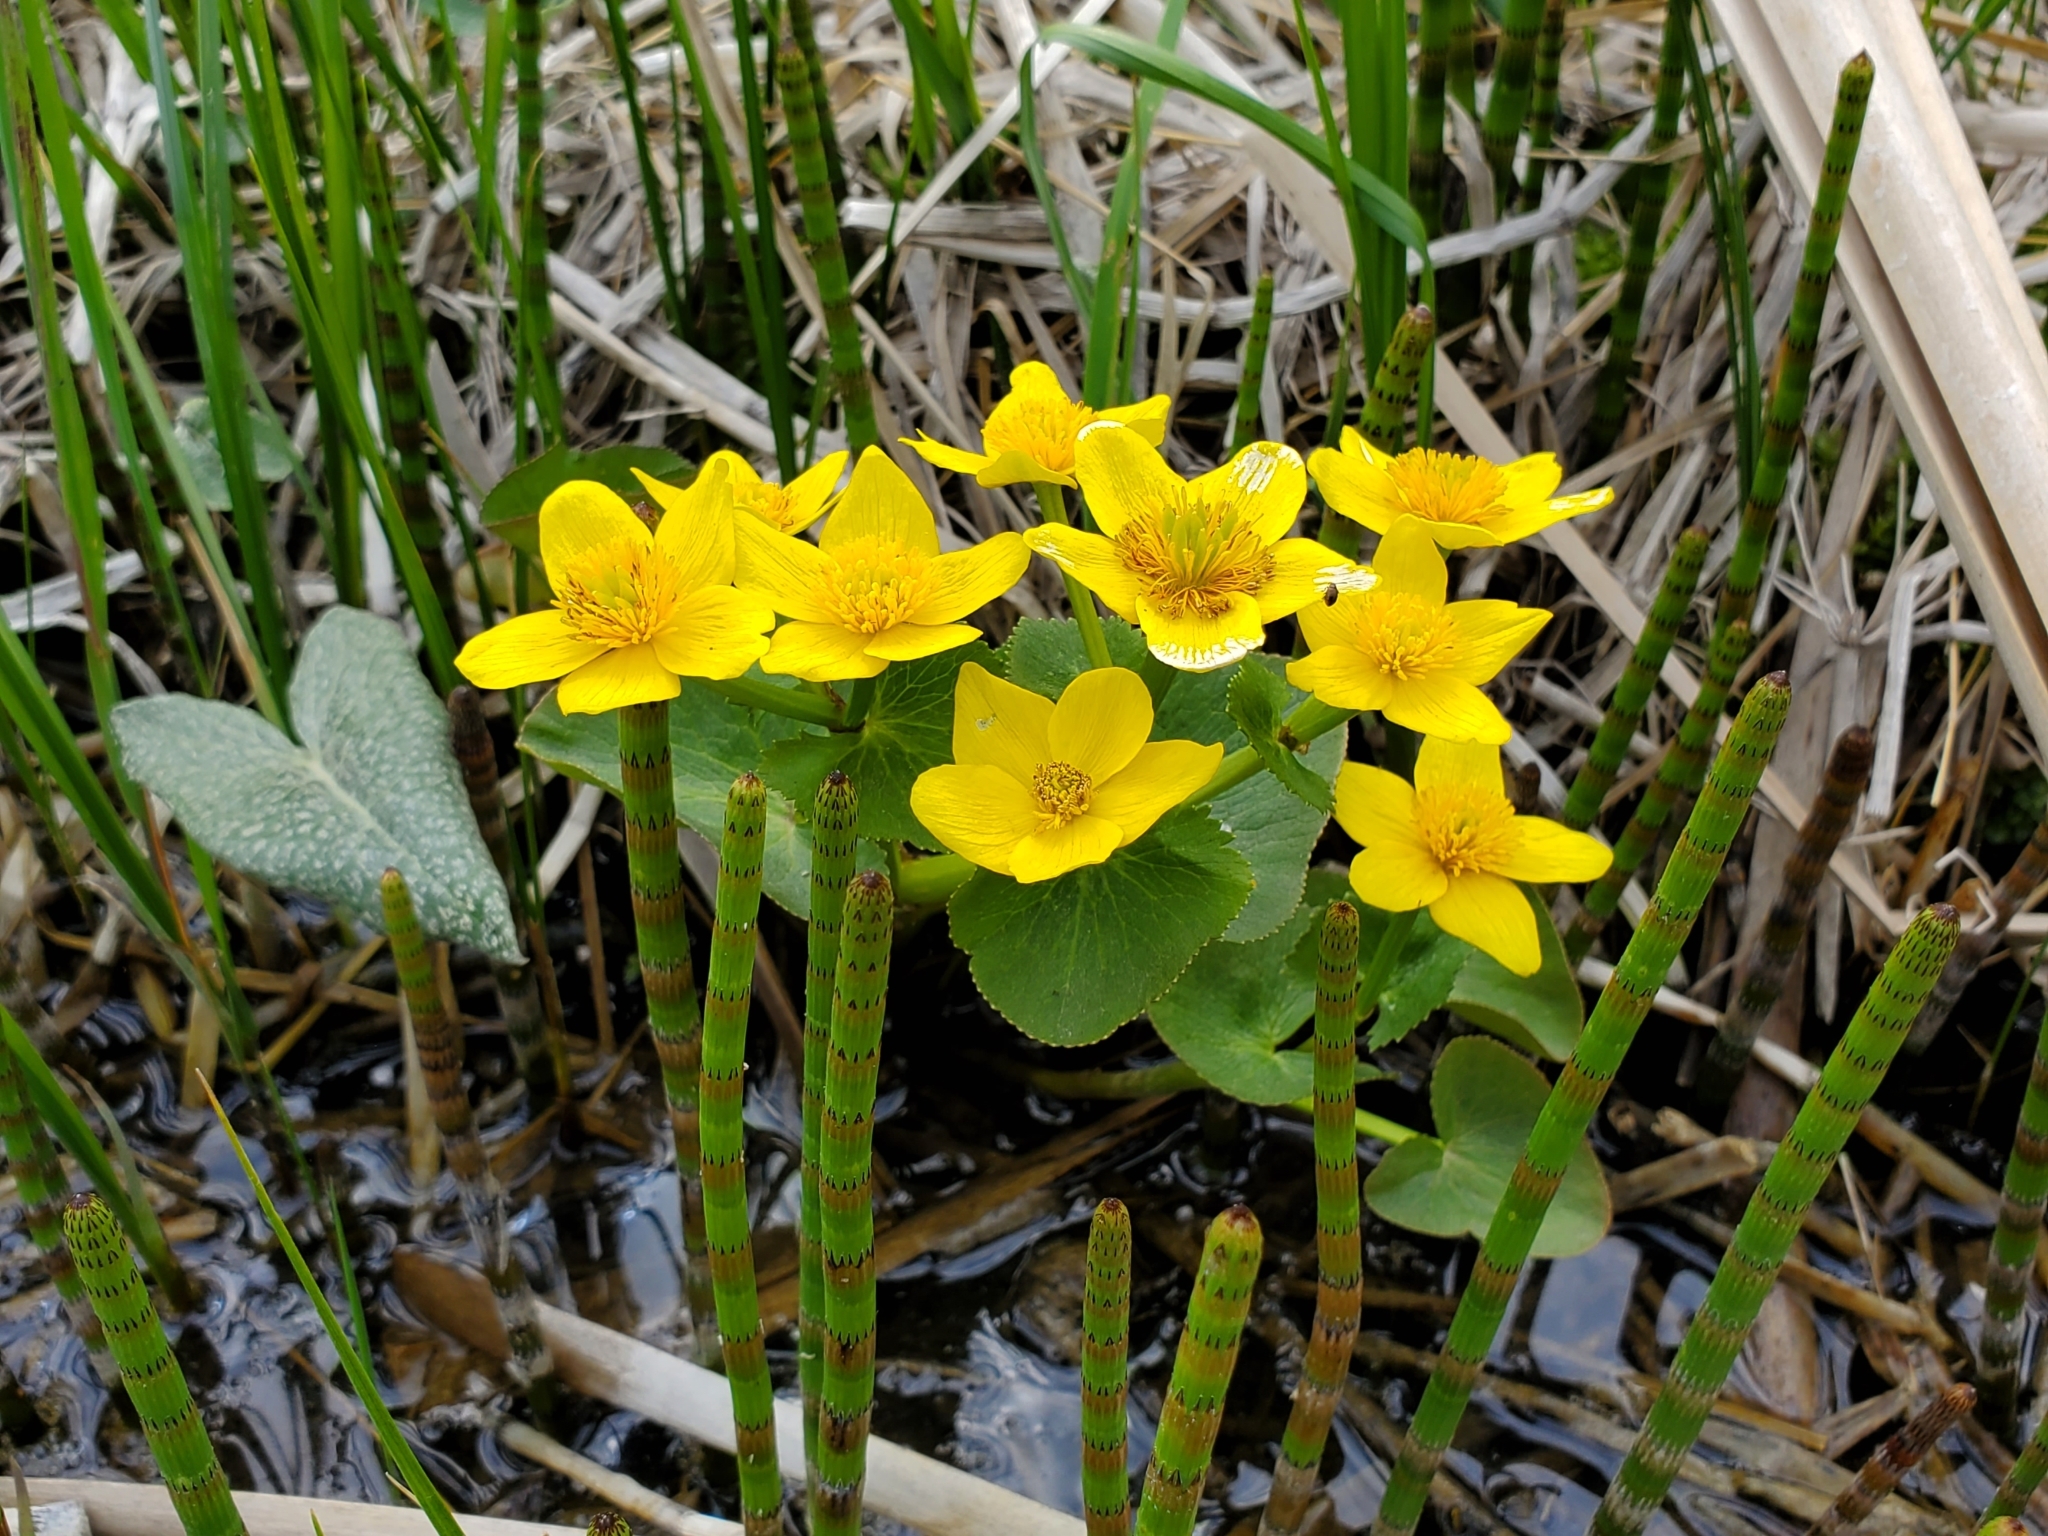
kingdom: Plantae
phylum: Tracheophyta
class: Magnoliopsida
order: Ranunculales
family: Ranunculaceae
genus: Caltha
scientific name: Caltha palustris
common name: Marsh marigold
